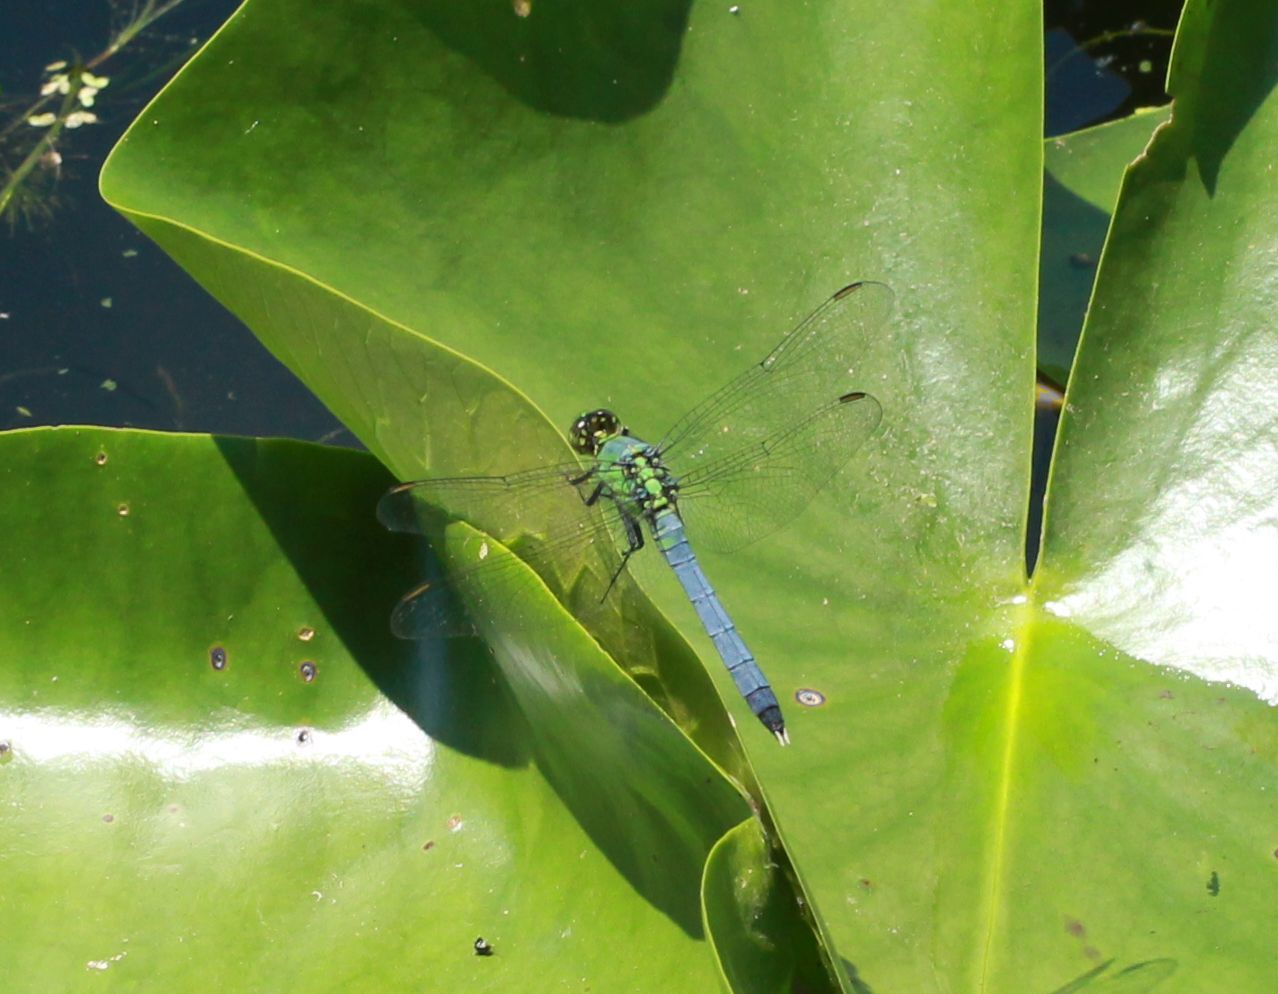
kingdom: Animalia
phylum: Arthropoda
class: Insecta
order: Odonata
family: Libellulidae
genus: Erythemis
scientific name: Erythemis simplicicollis
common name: Eastern pondhawk
